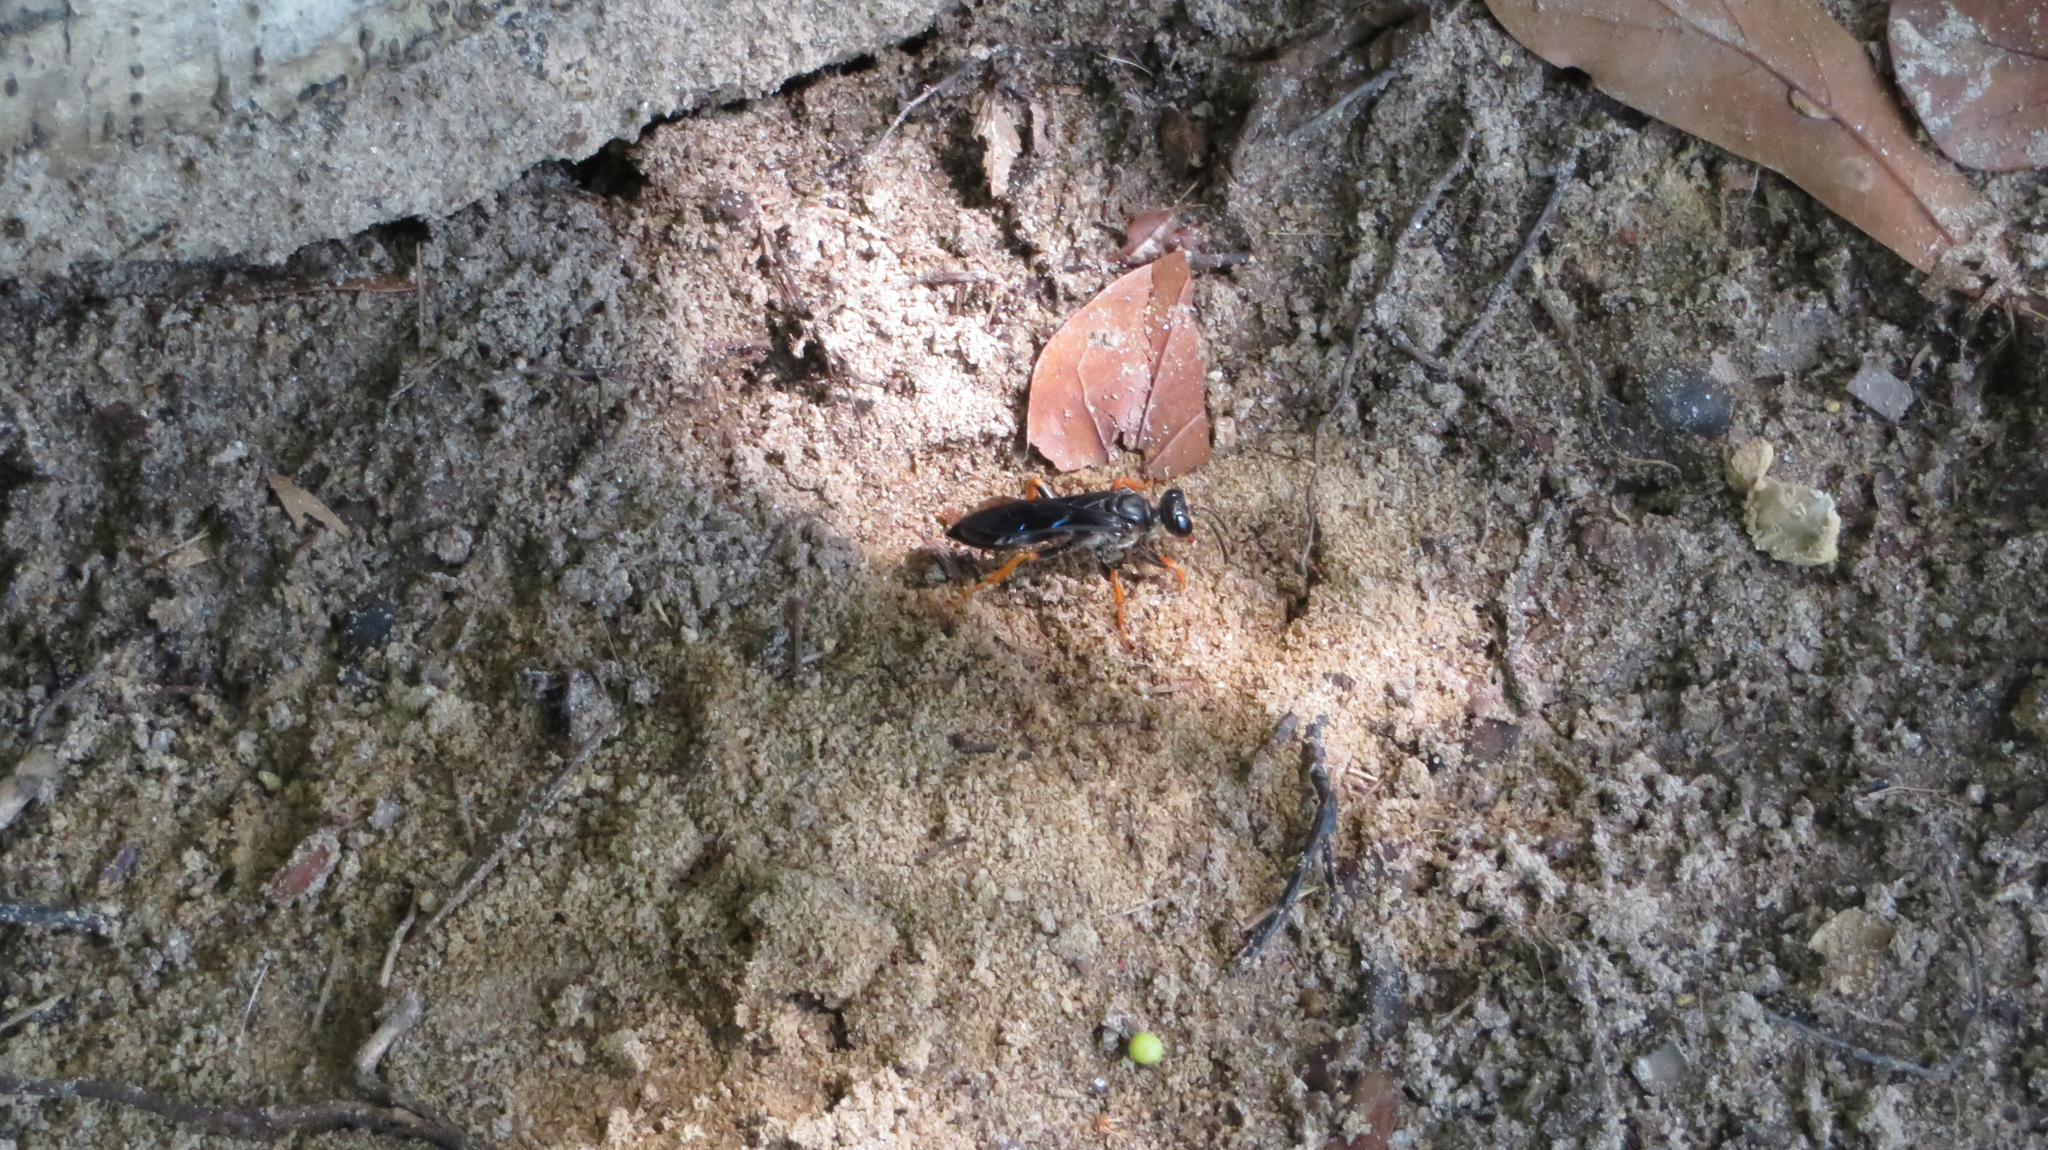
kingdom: Animalia
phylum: Arthropoda
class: Insecta
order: Hymenoptera
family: Sphecidae
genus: Sphex
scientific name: Sphex nudus
